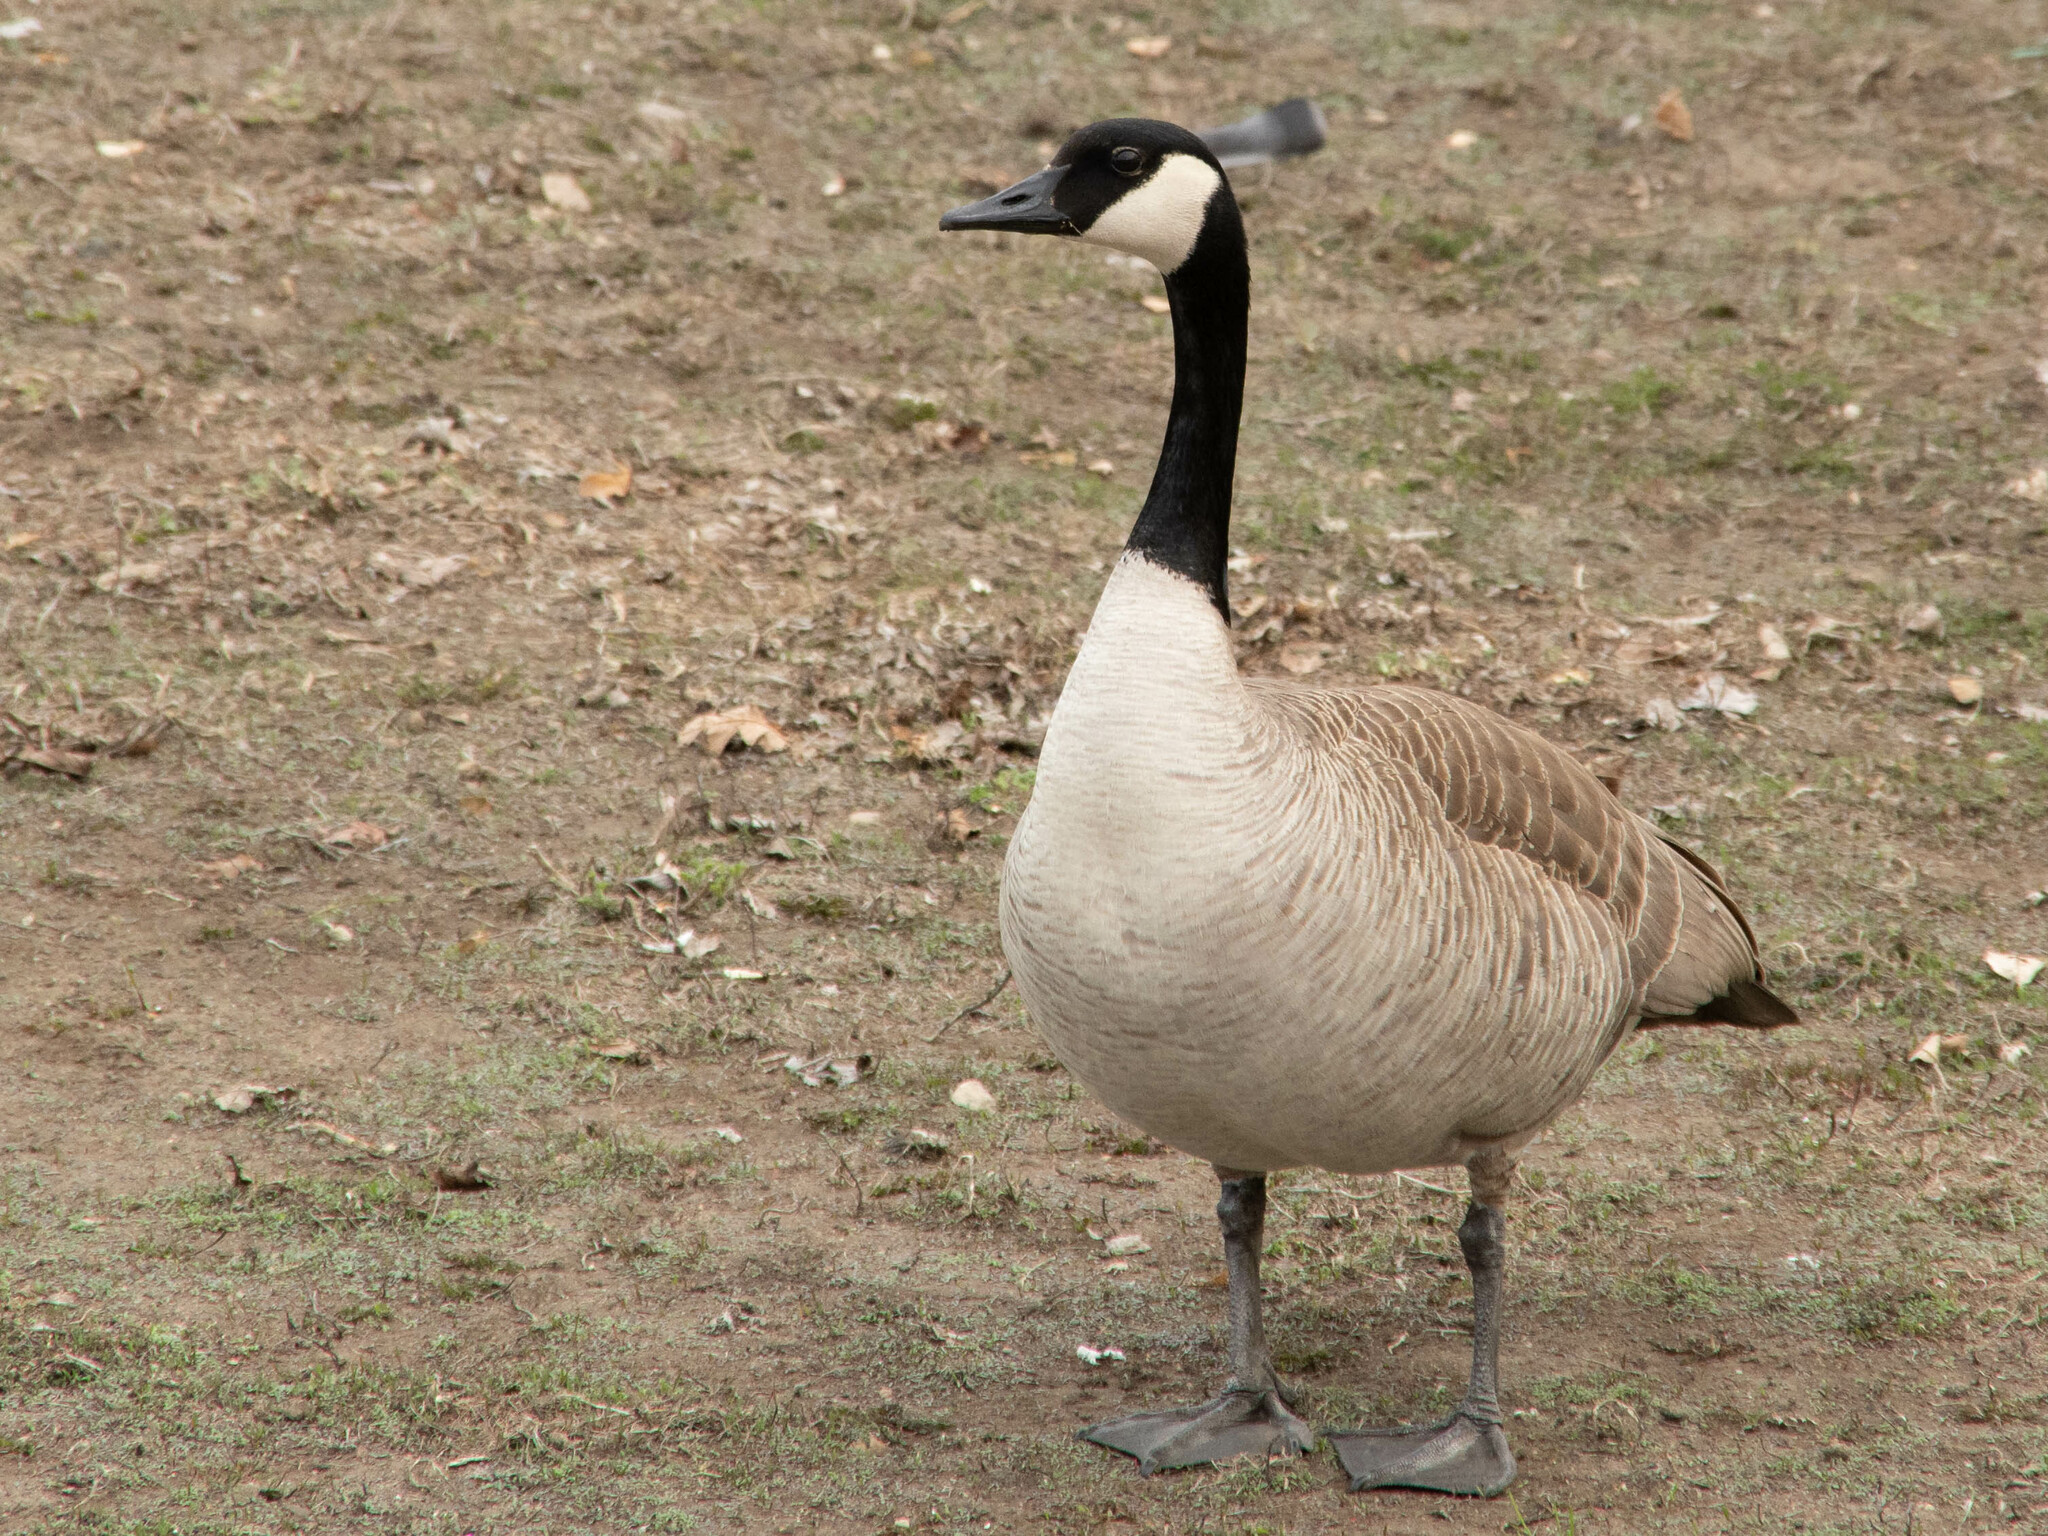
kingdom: Animalia
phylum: Chordata
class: Aves
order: Anseriformes
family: Anatidae
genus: Branta
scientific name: Branta canadensis
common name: Canada goose
